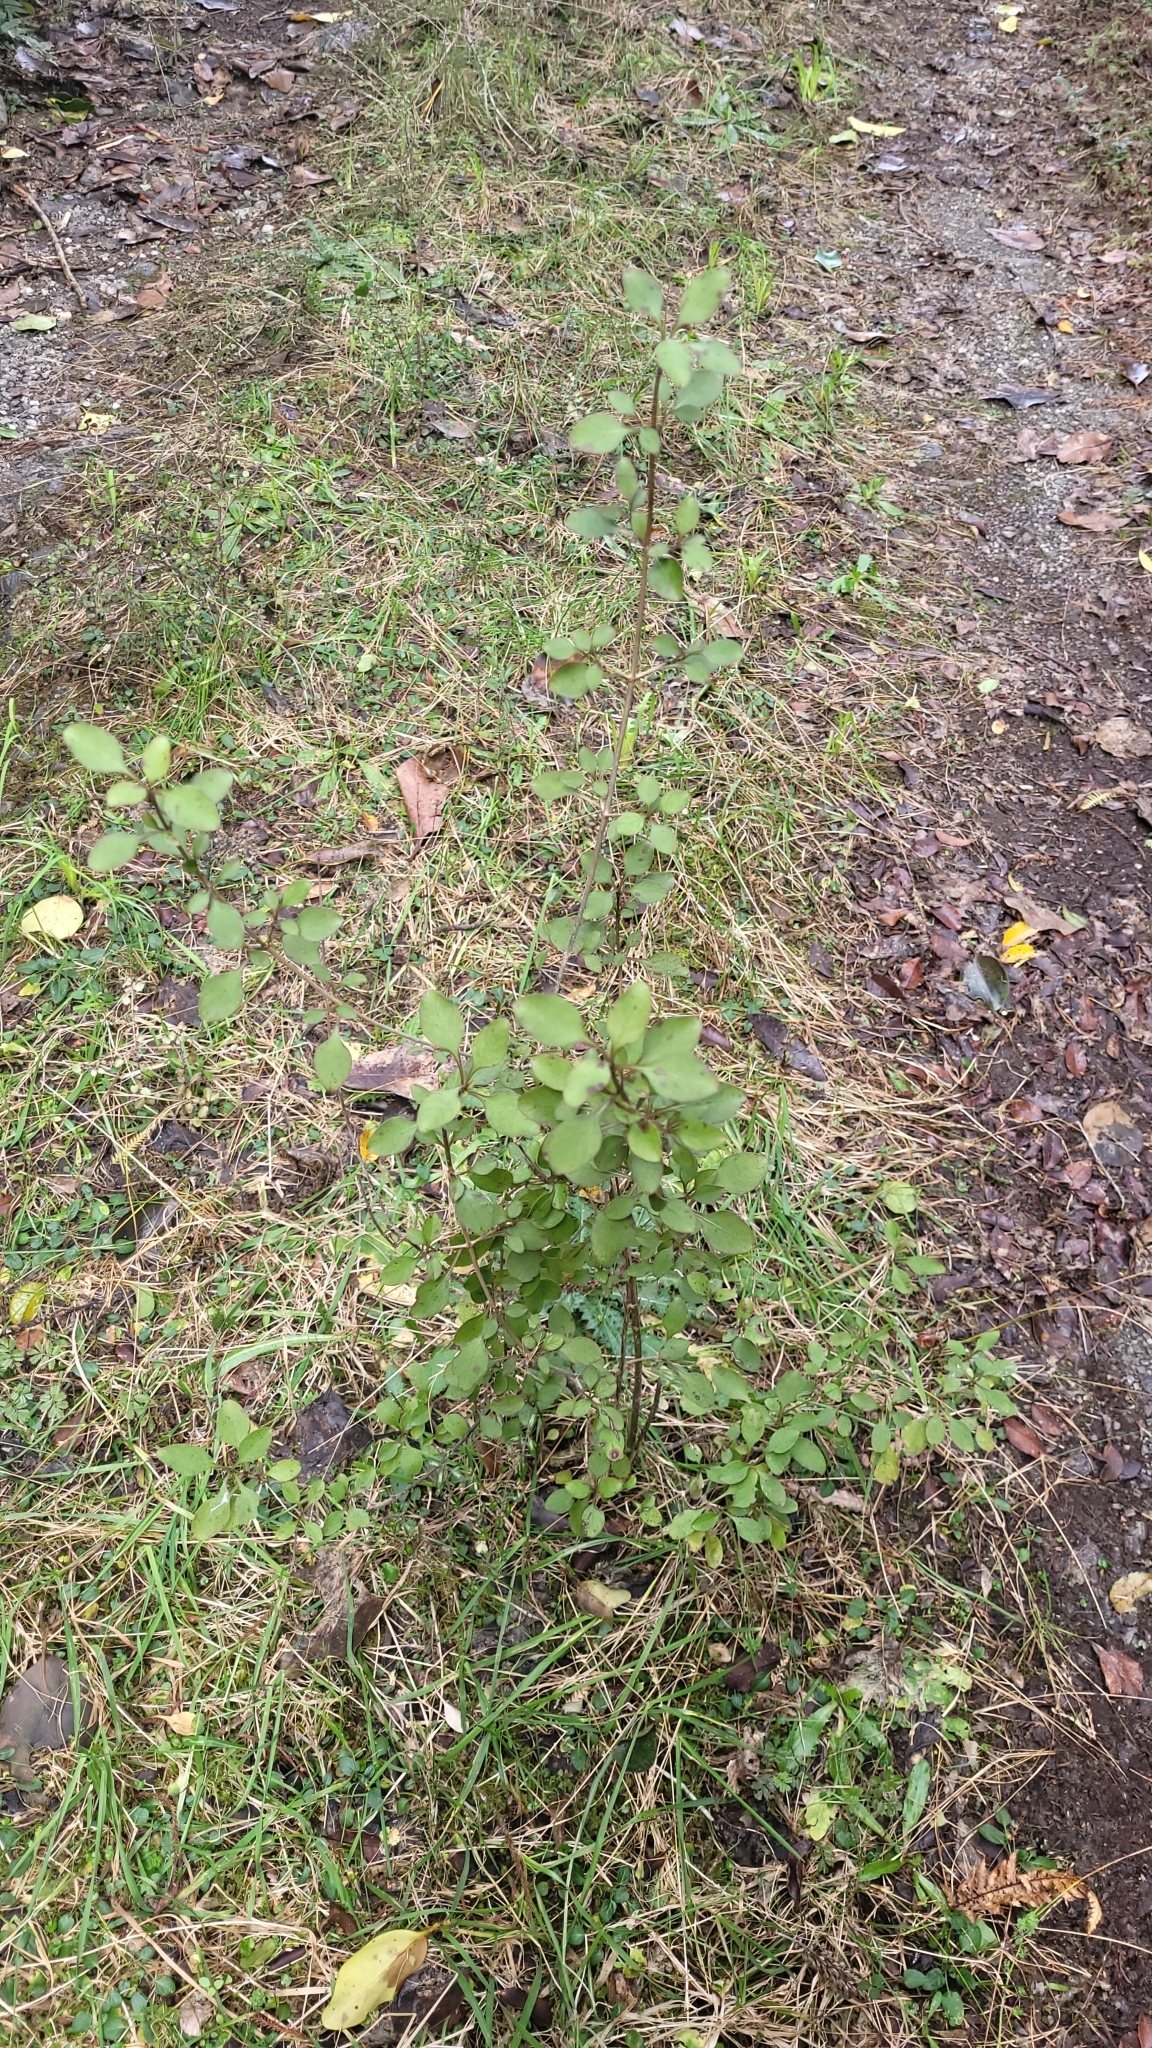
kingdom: Plantae
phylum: Tracheophyta
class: Magnoliopsida
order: Gentianales
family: Rubiaceae
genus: Coprosma
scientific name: Coprosma foetidissima
